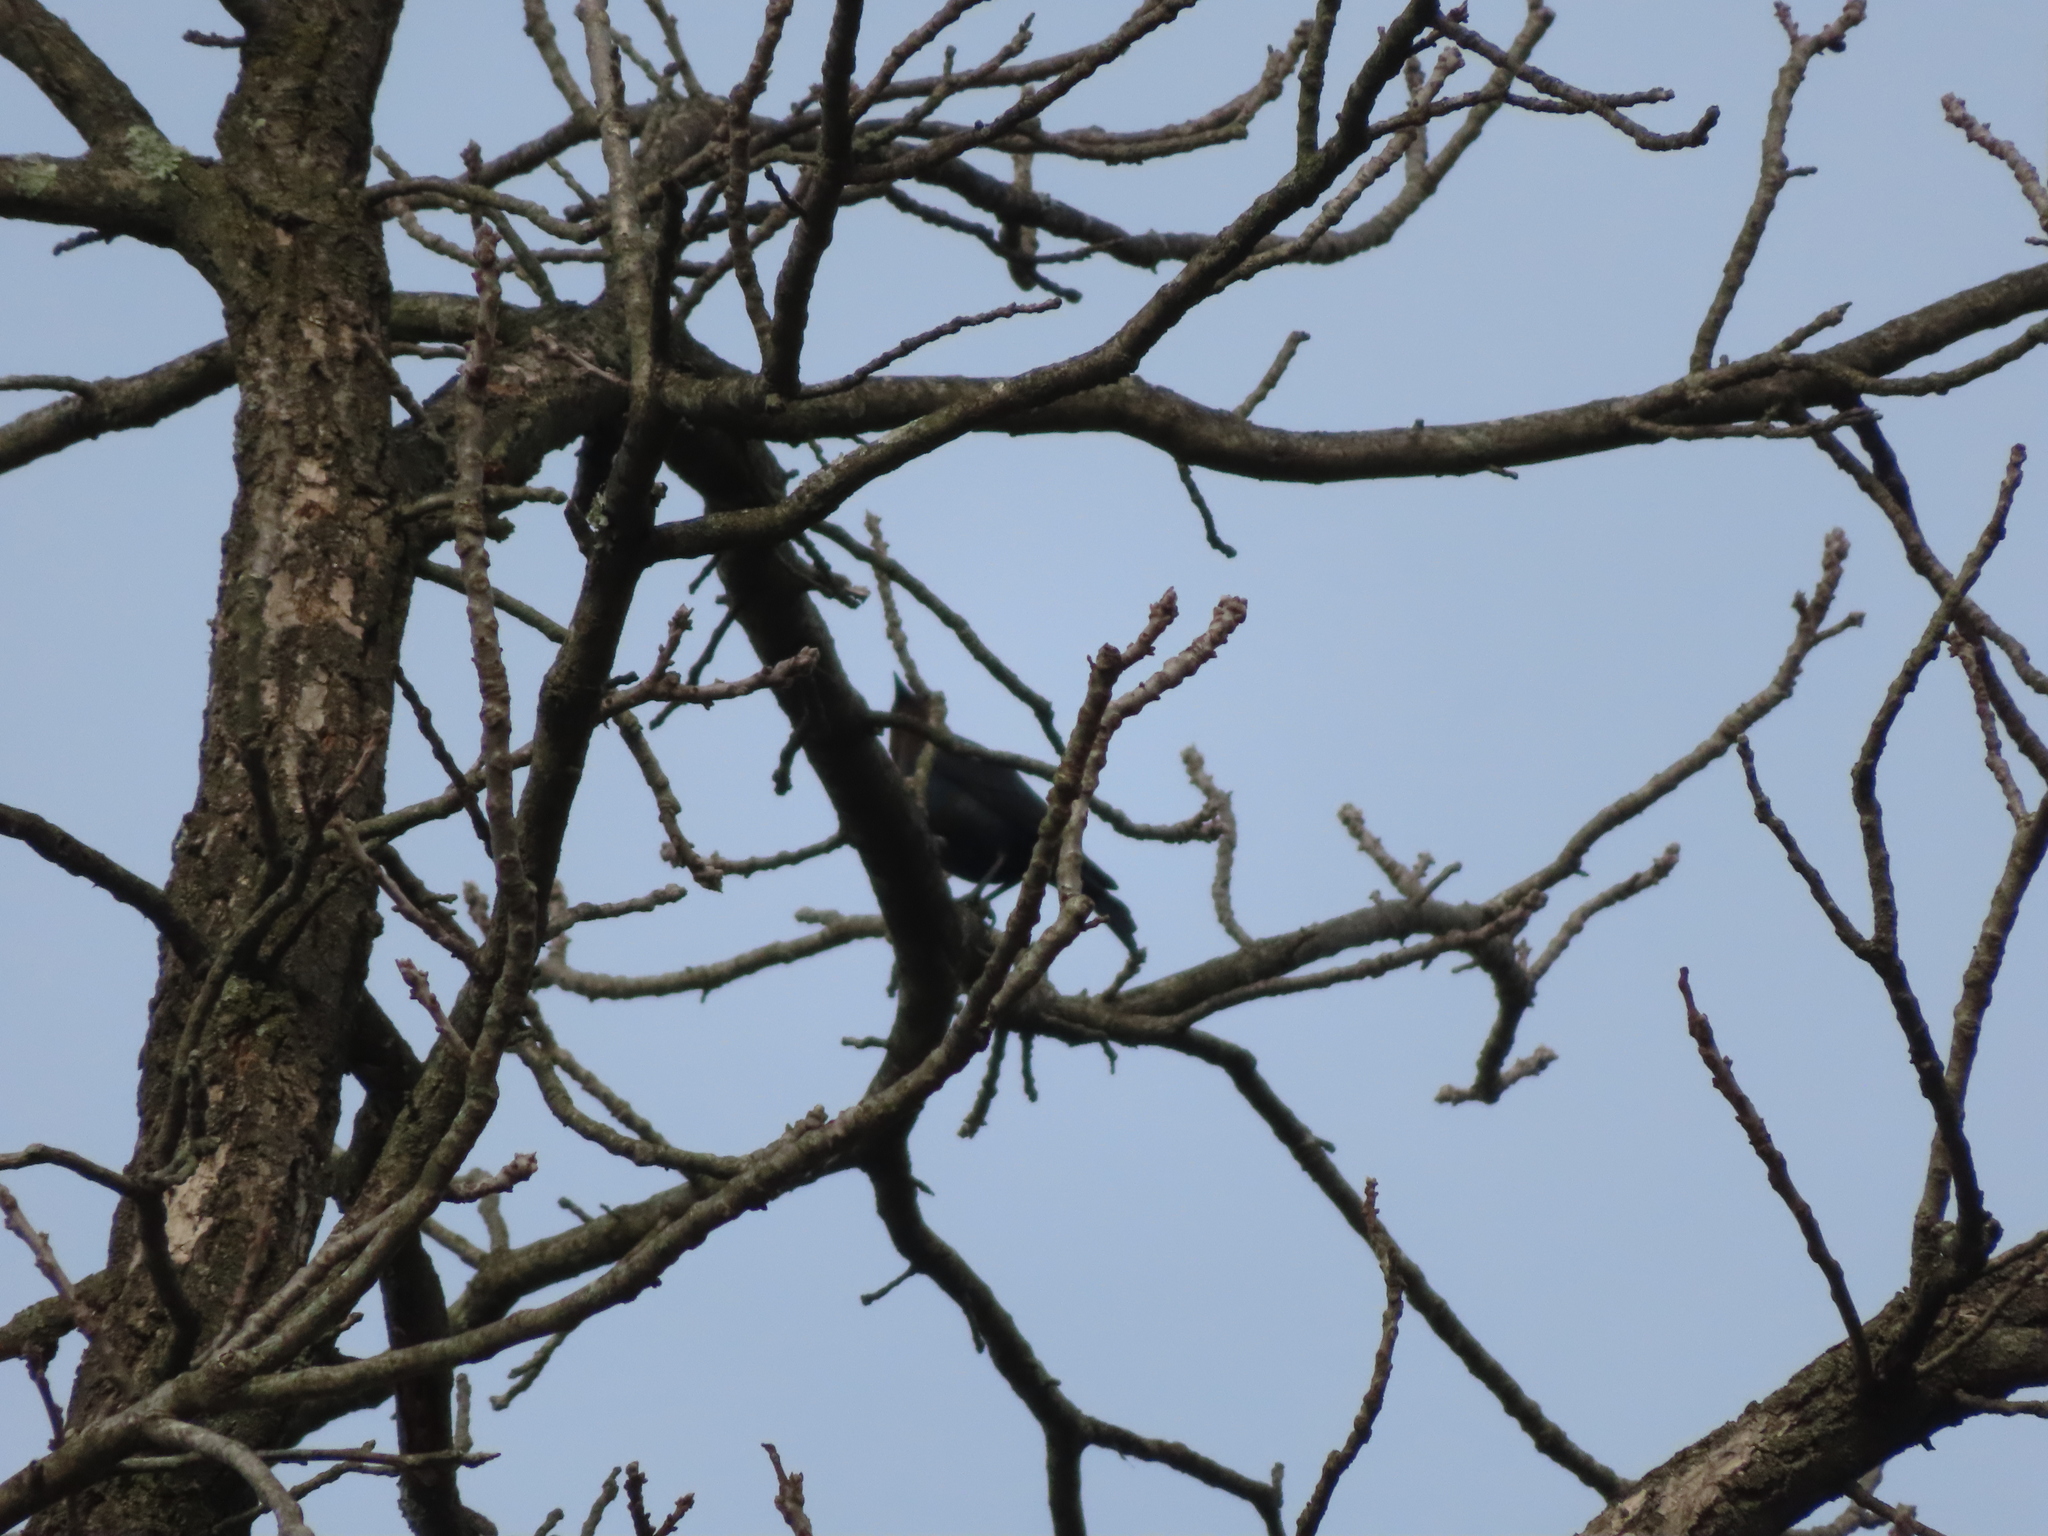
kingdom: Animalia
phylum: Chordata
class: Aves
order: Passeriformes
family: Icteridae
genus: Molothrus
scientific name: Molothrus ater
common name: Brown-headed cowbird
